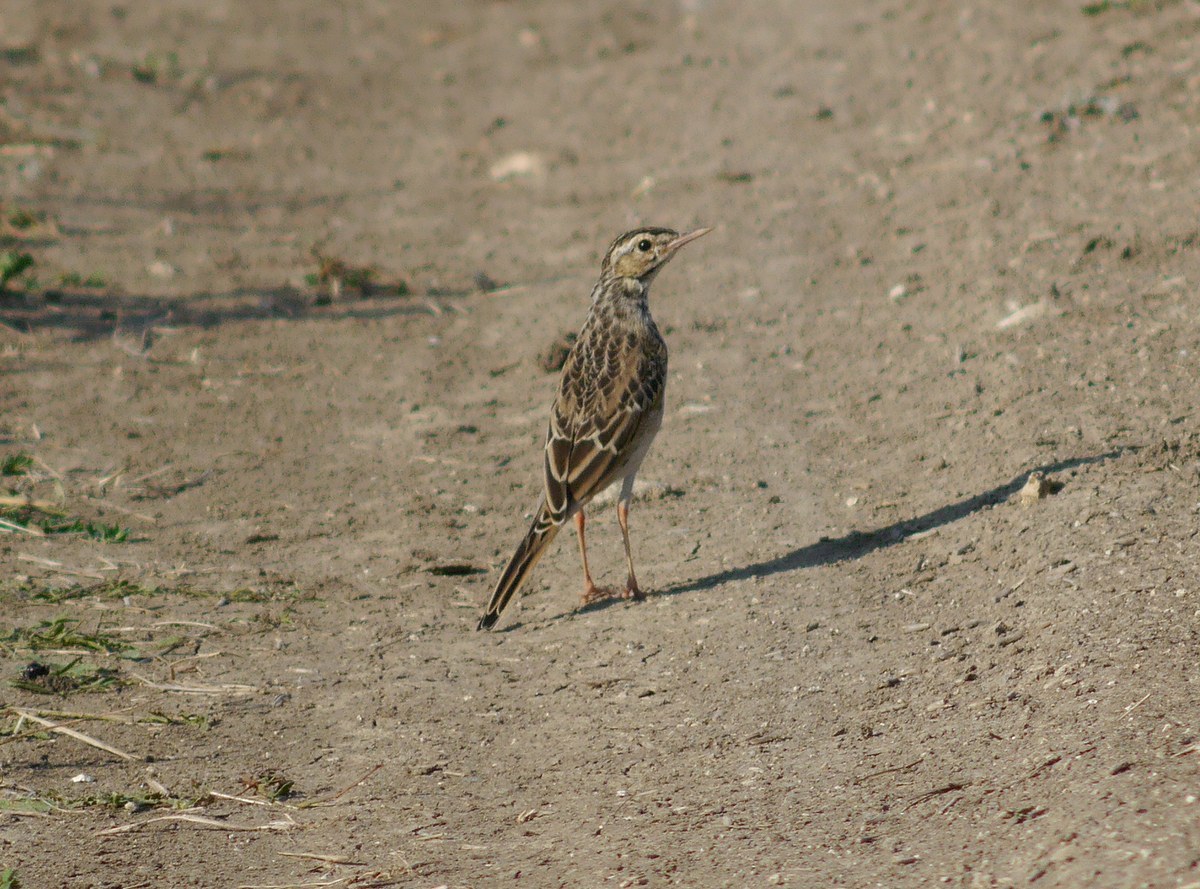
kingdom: Animalia
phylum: Chordata
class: Aves
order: Passeriformes
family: Motacillidae
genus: Anthus
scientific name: Anthus campestris
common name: Tawny pipit
